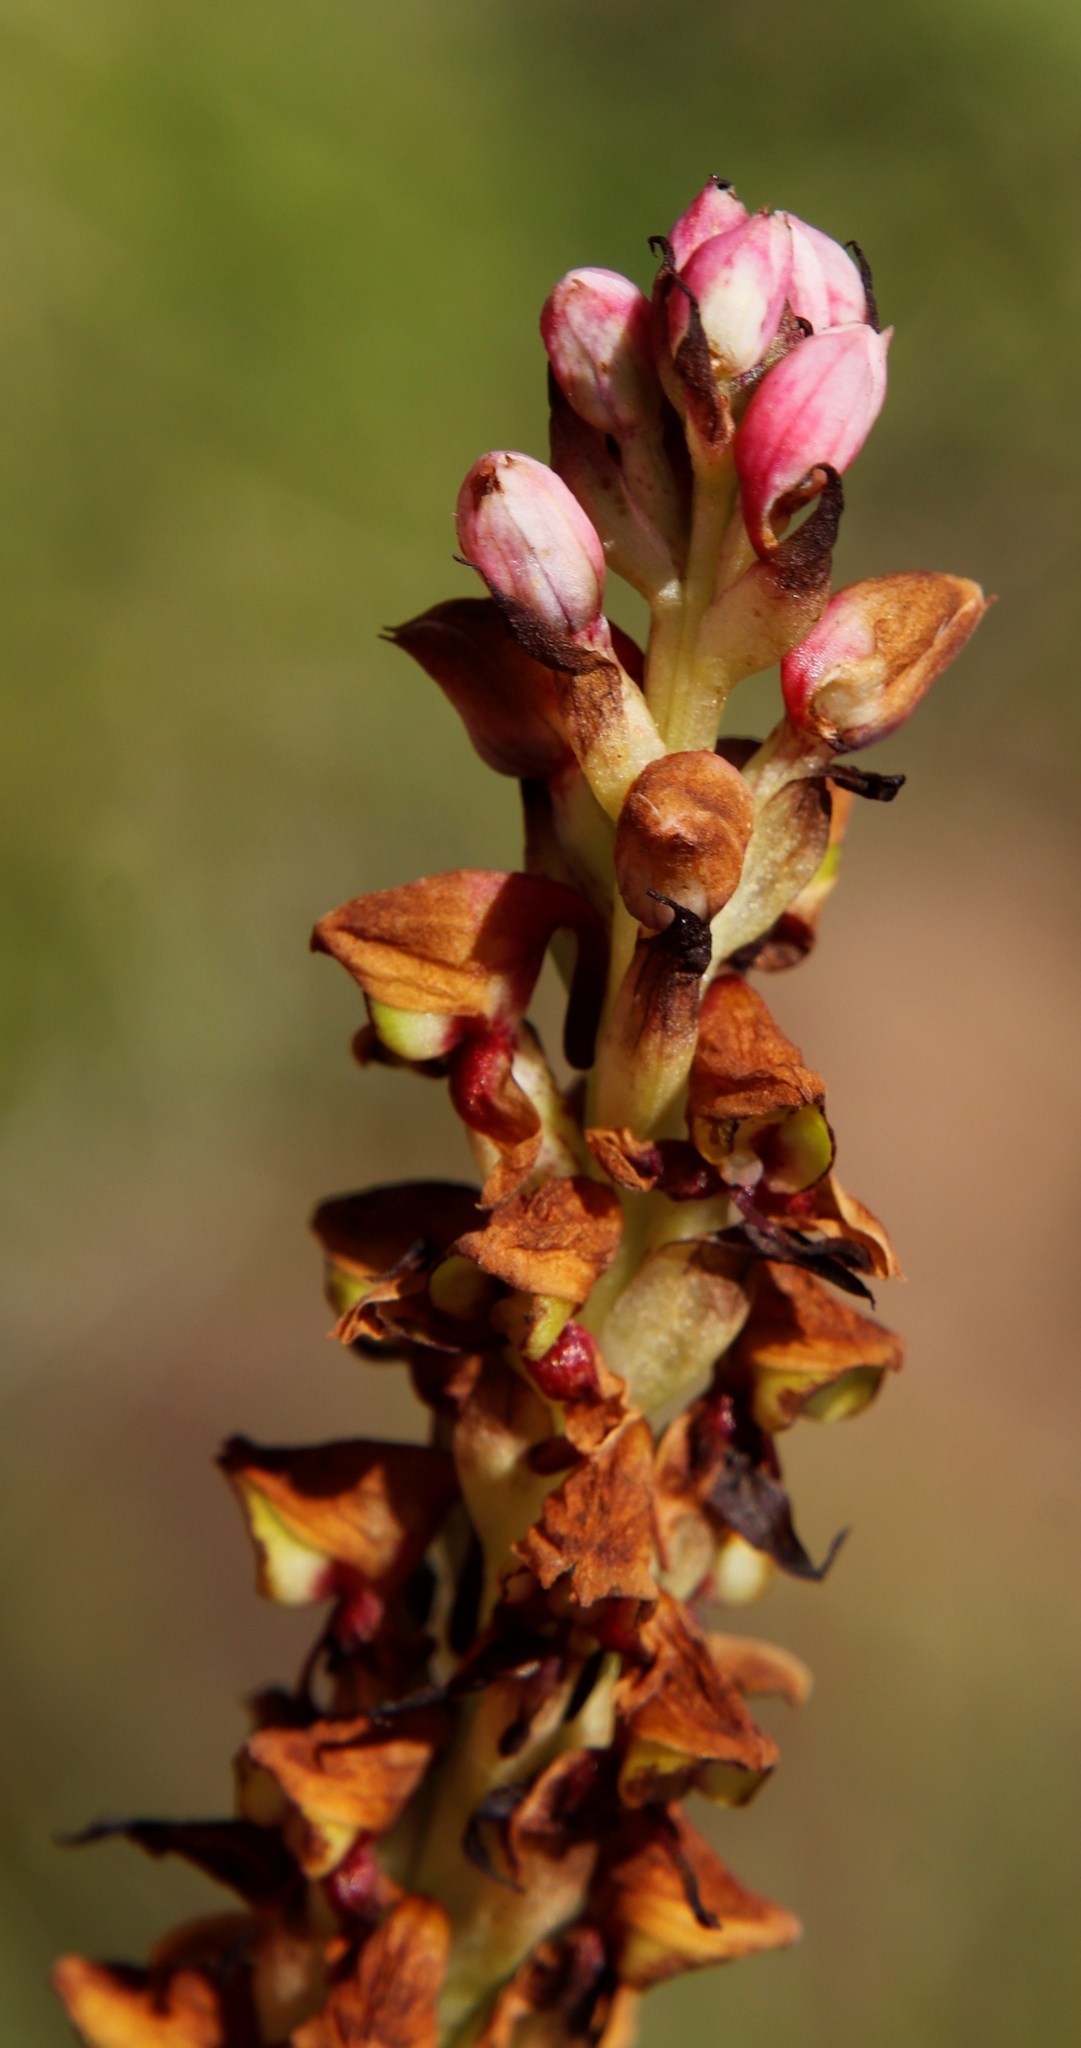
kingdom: Plantae
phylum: Tracheophyta
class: Liliopsida
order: Asparagales
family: Orchidaceae
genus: Disa
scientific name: Disa versicolor
